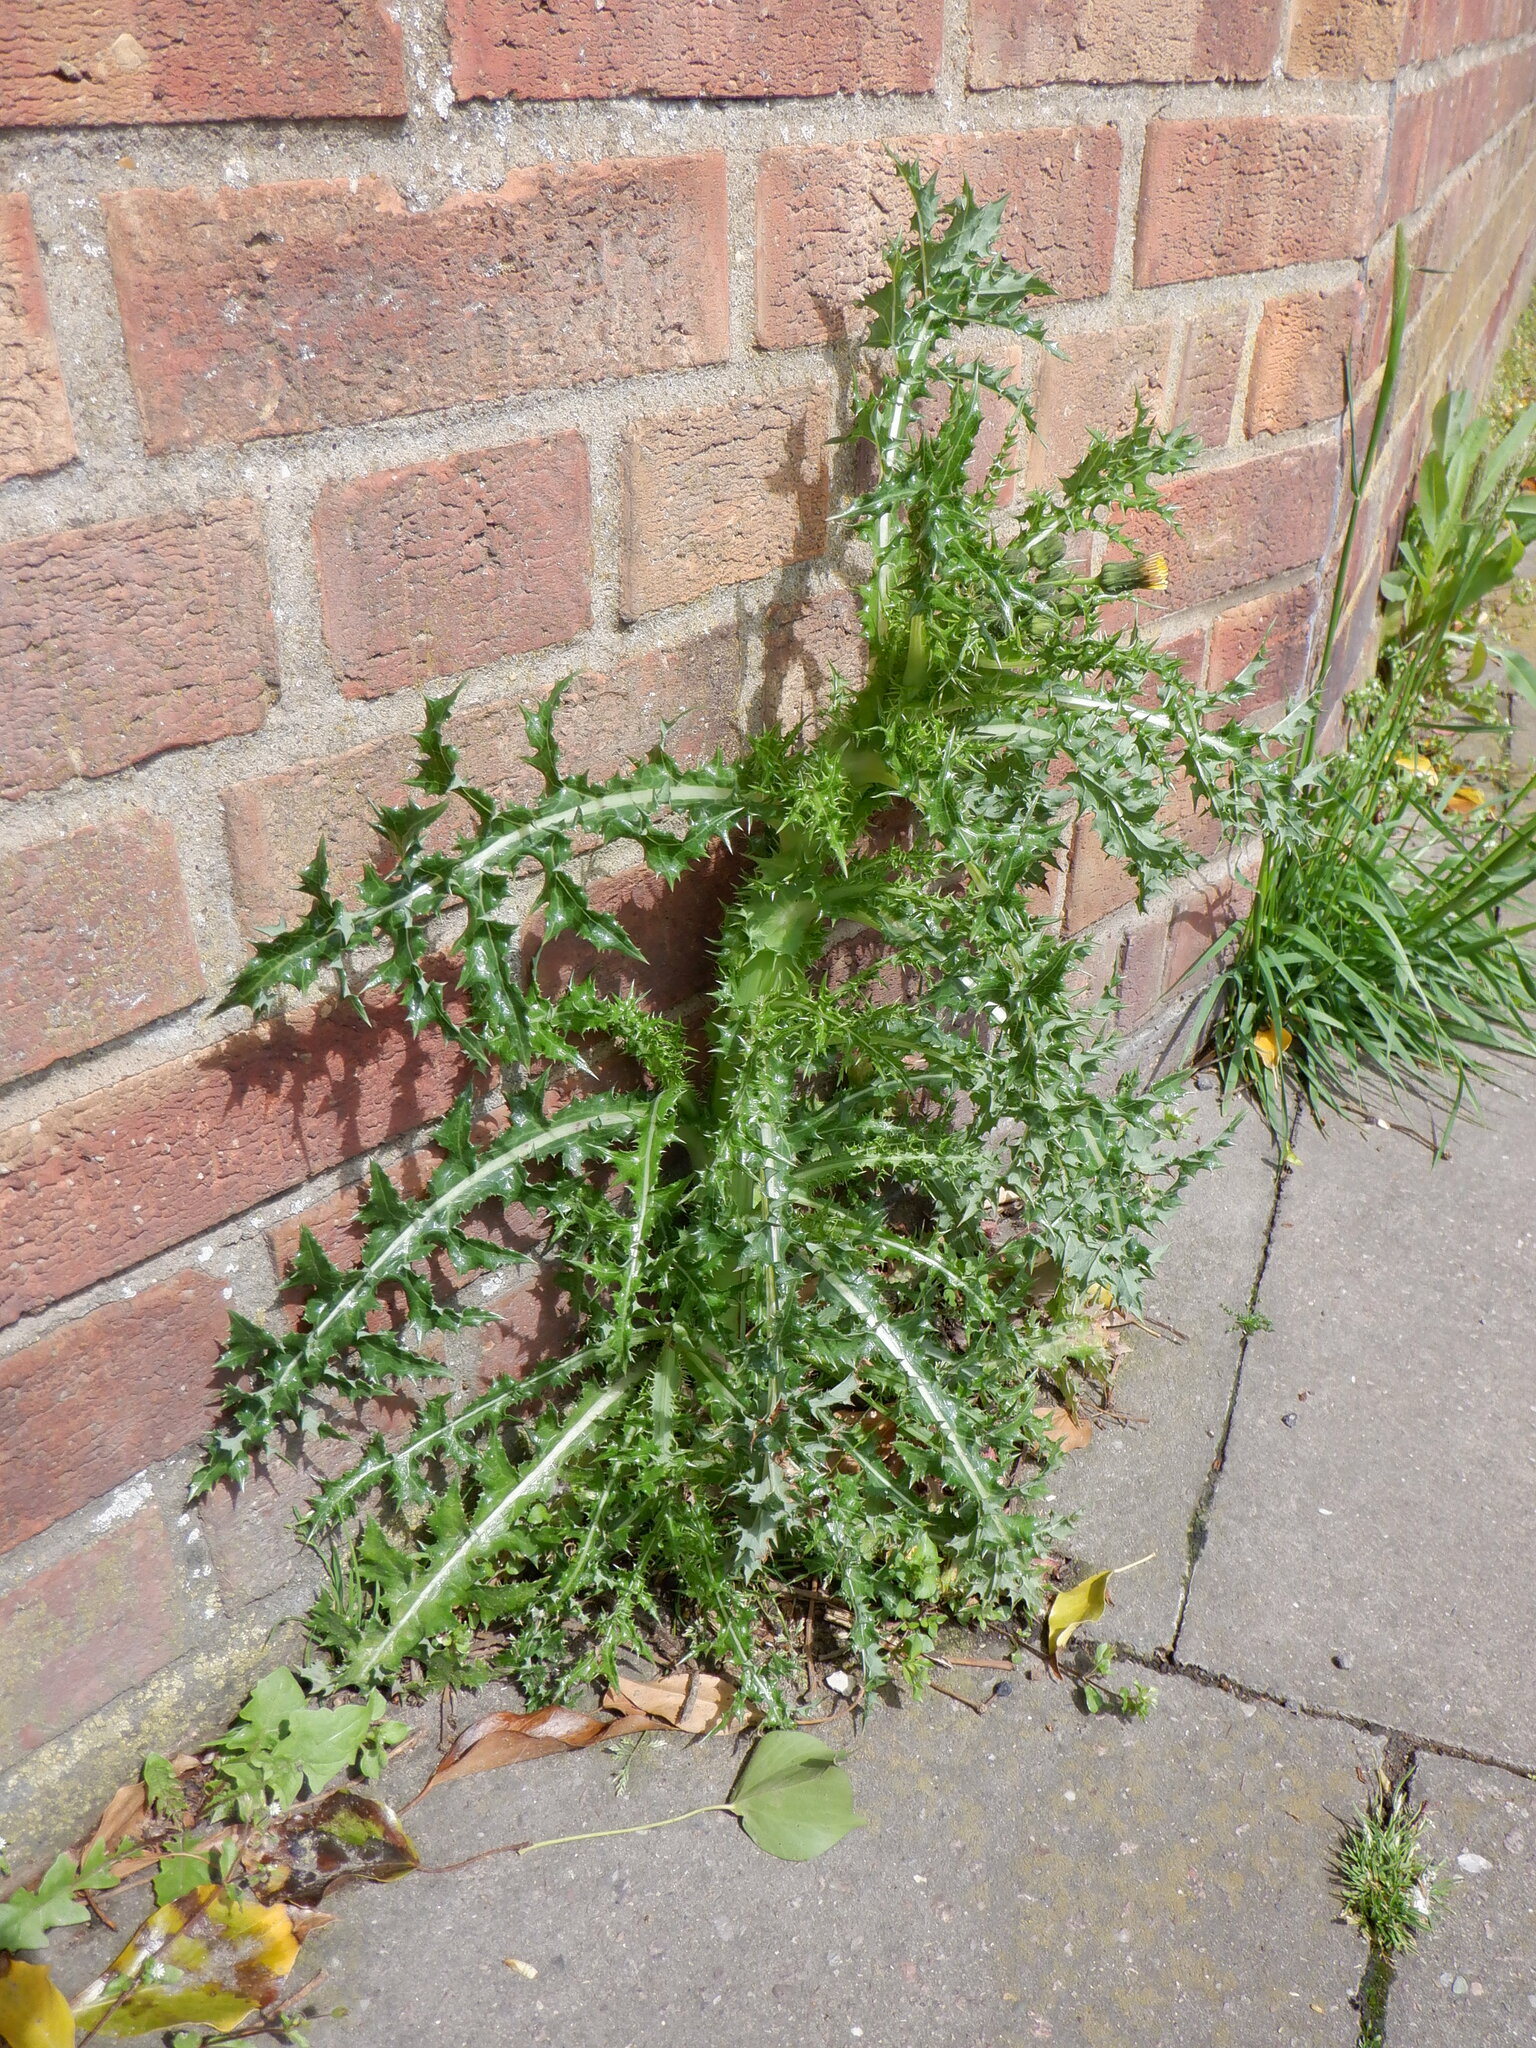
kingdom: Plantae
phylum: Tracheophyta
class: Magnoliopsida
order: Asterales
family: Asteraceae
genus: Sonchus
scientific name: Sonchus asper
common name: Prickly sow-thistle
